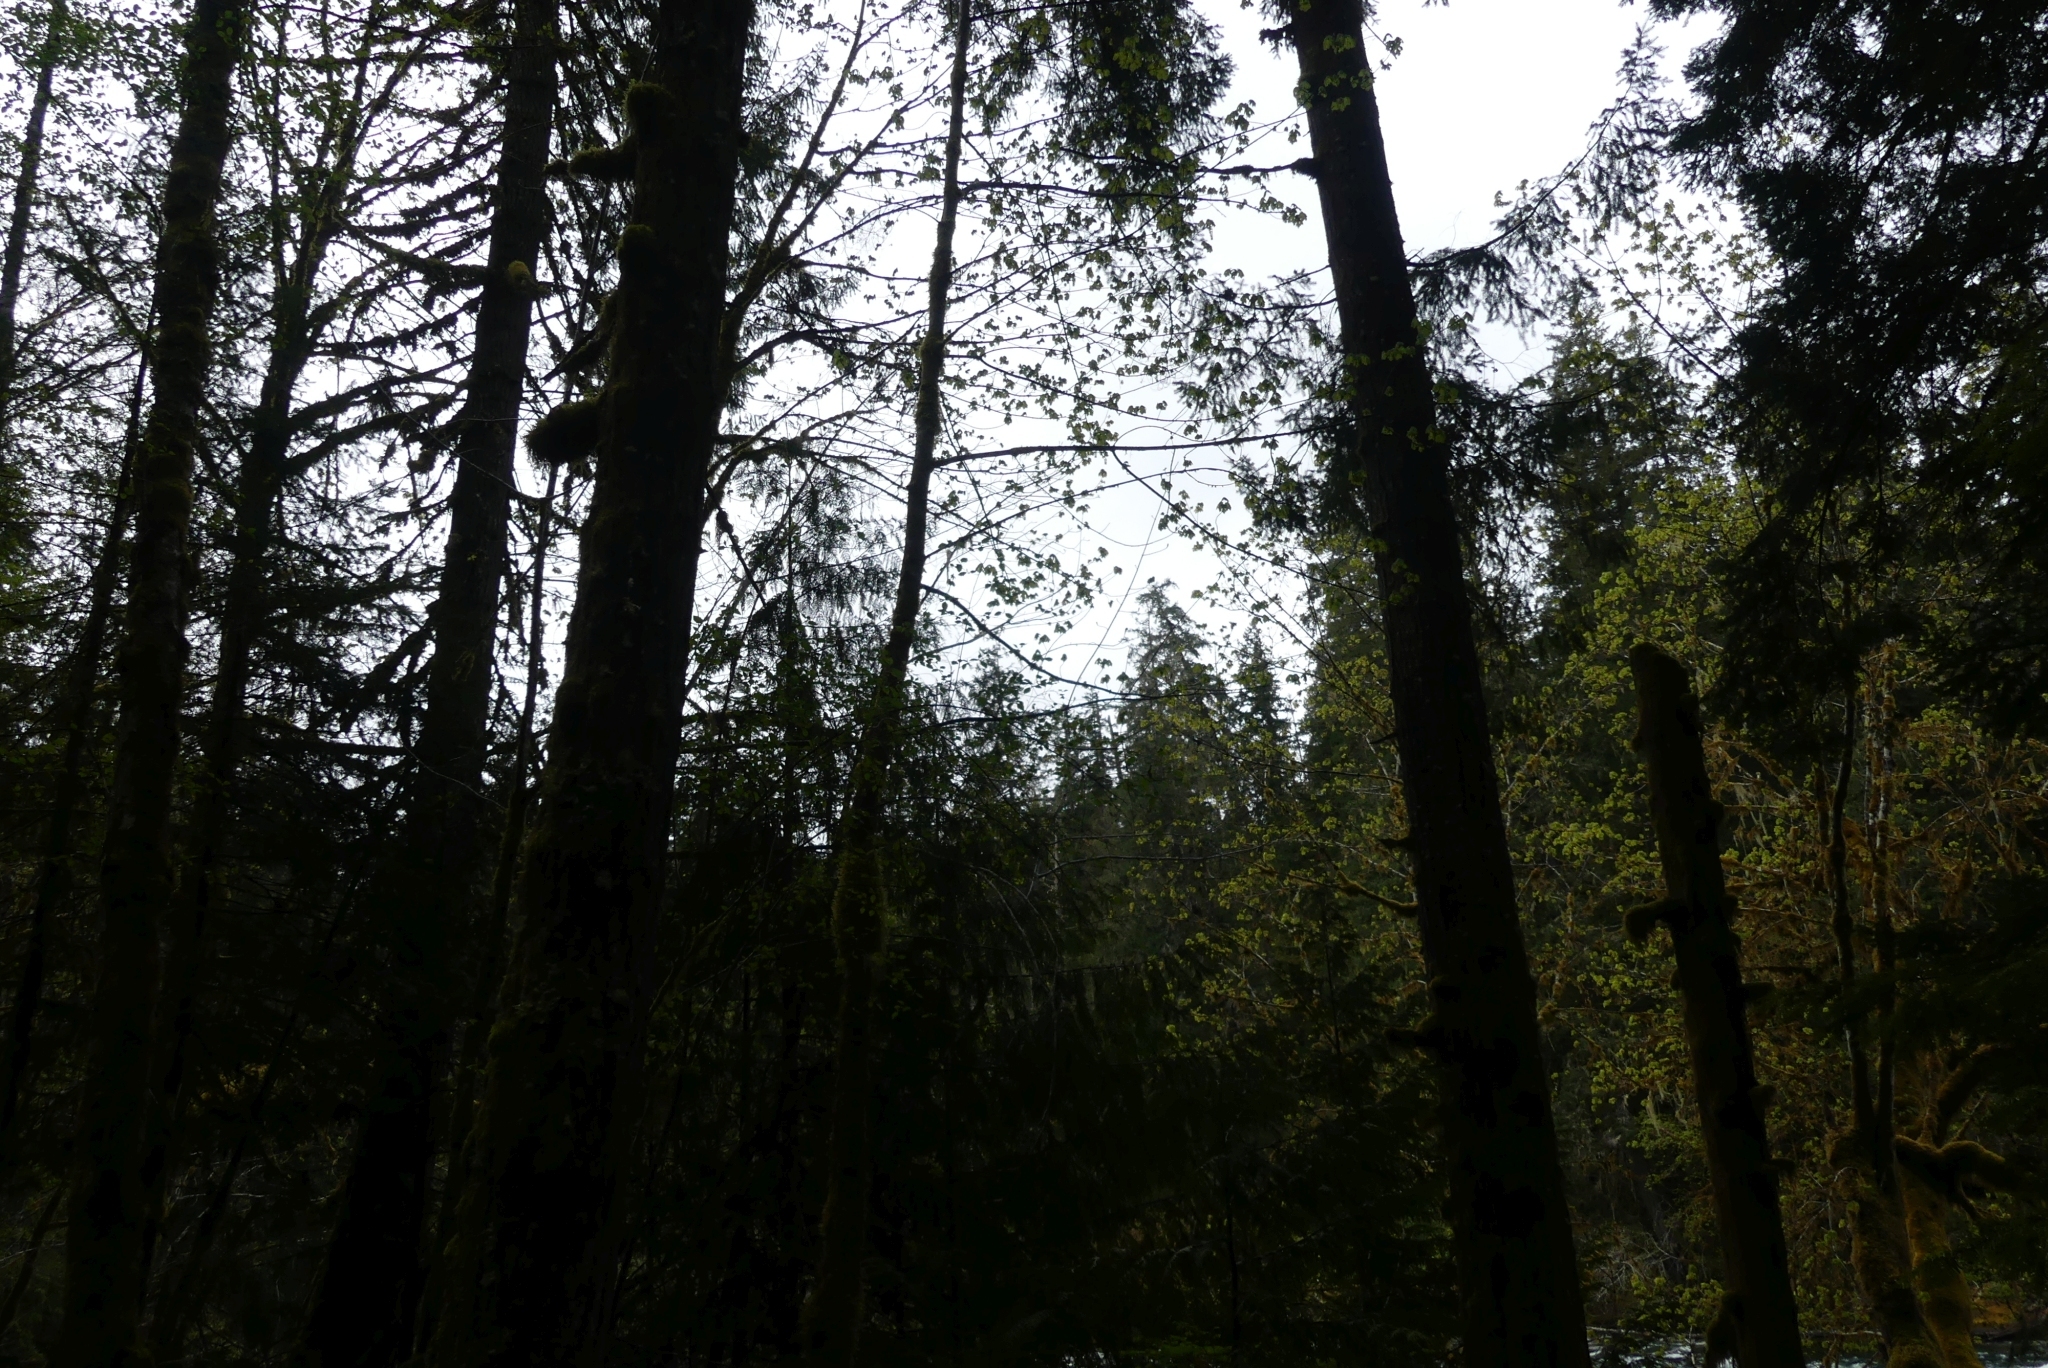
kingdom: Plantae
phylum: Tracheophyta
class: Magnoliopsida
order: Sapindales
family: Sapindaceae
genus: Acer
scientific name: Acer macrophyllum
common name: Oregon maple
